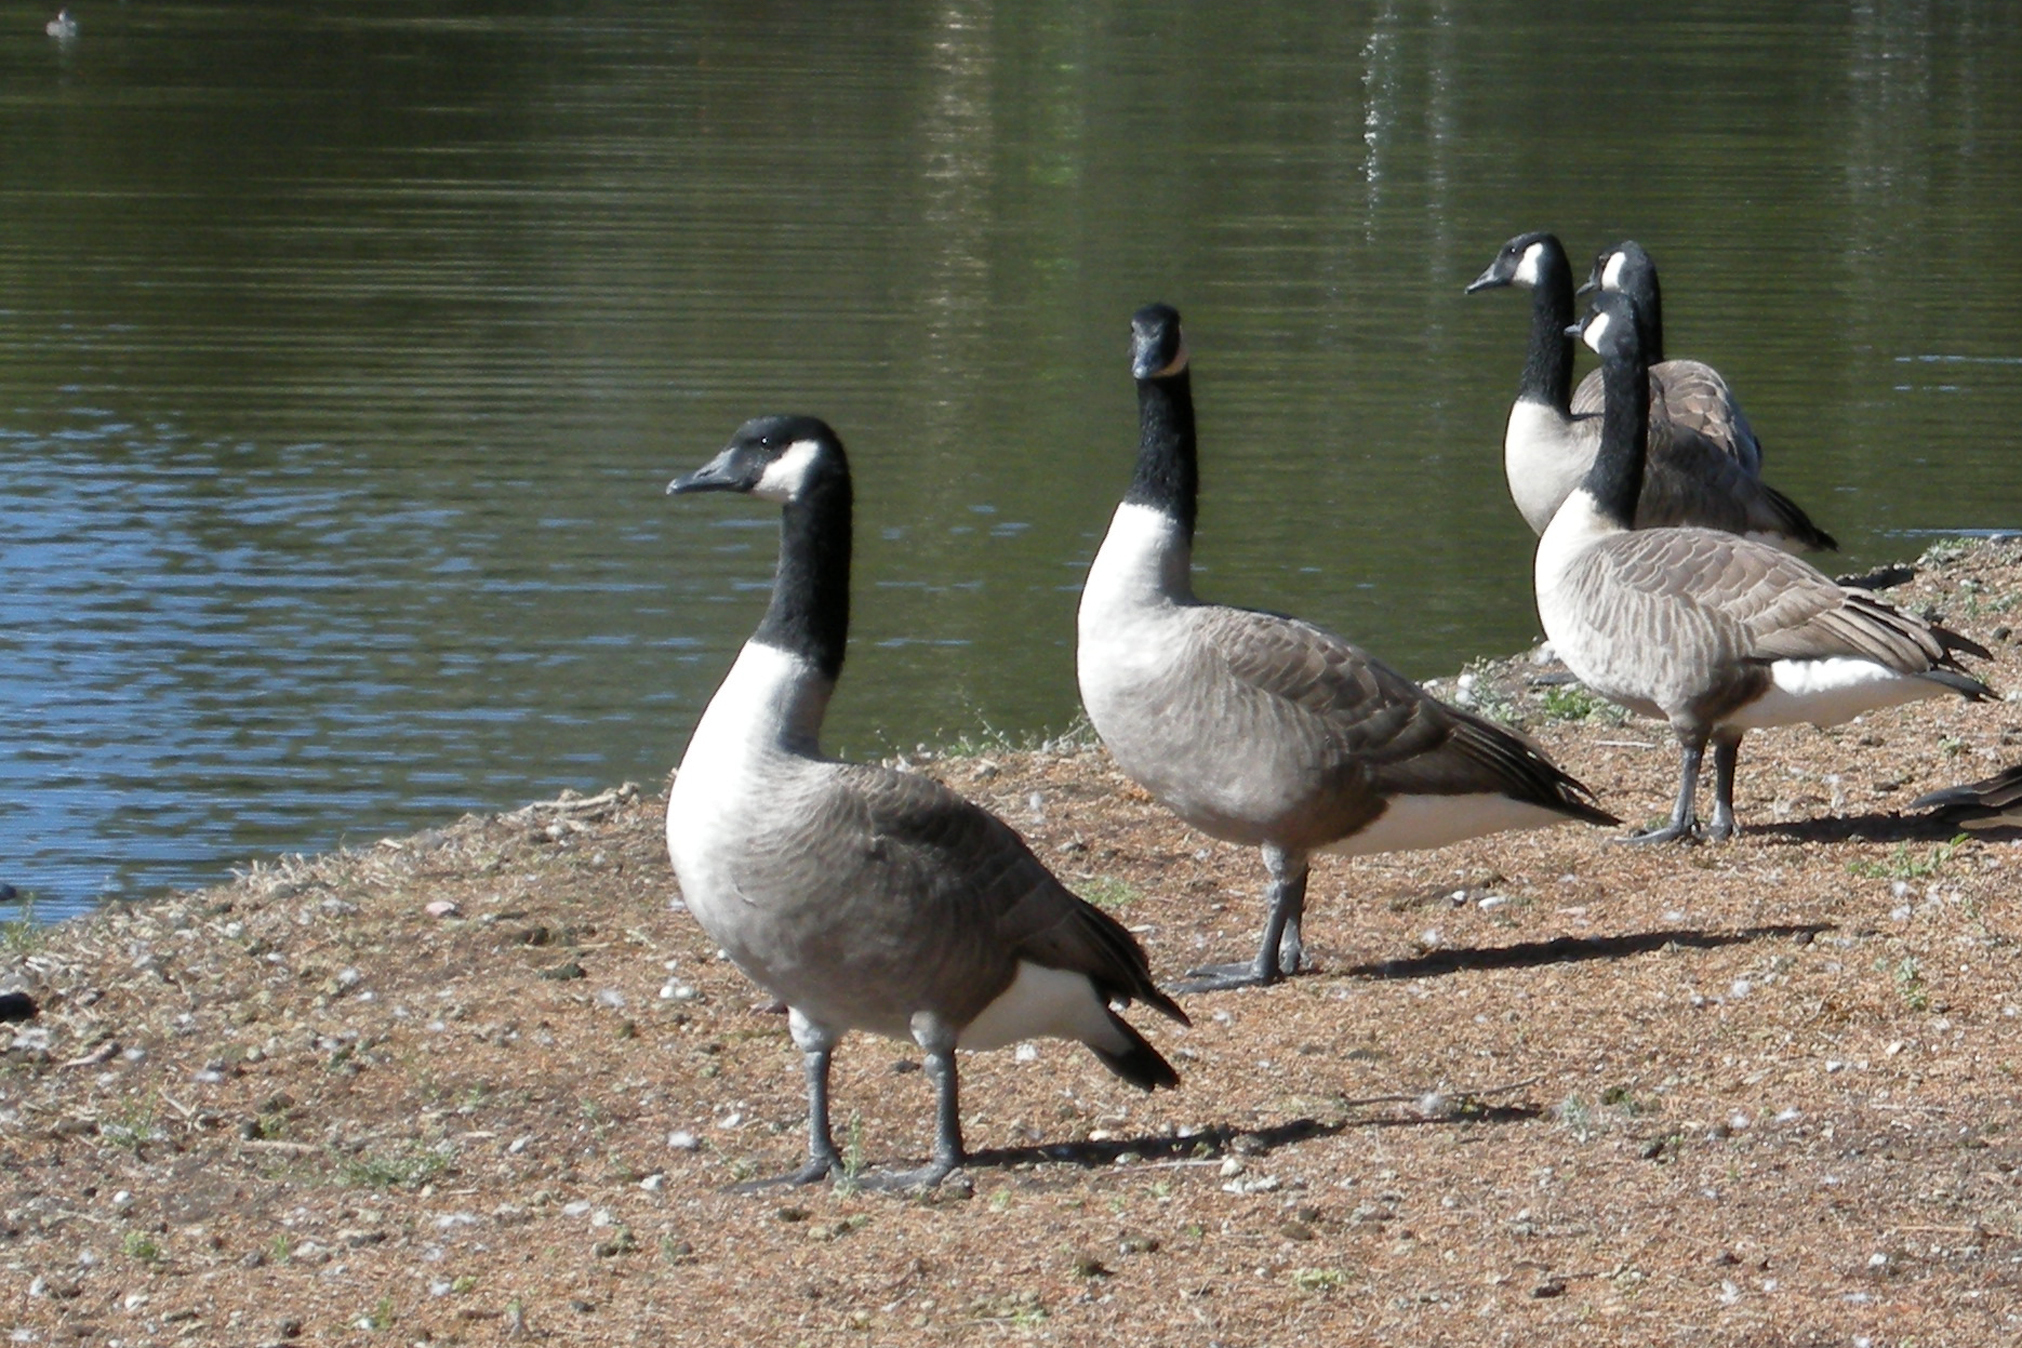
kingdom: Animalia
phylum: Chordata
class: Aves
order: Anseriformes
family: Anatidae
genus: Branta
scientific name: Branta canadensis
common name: Canada goose
